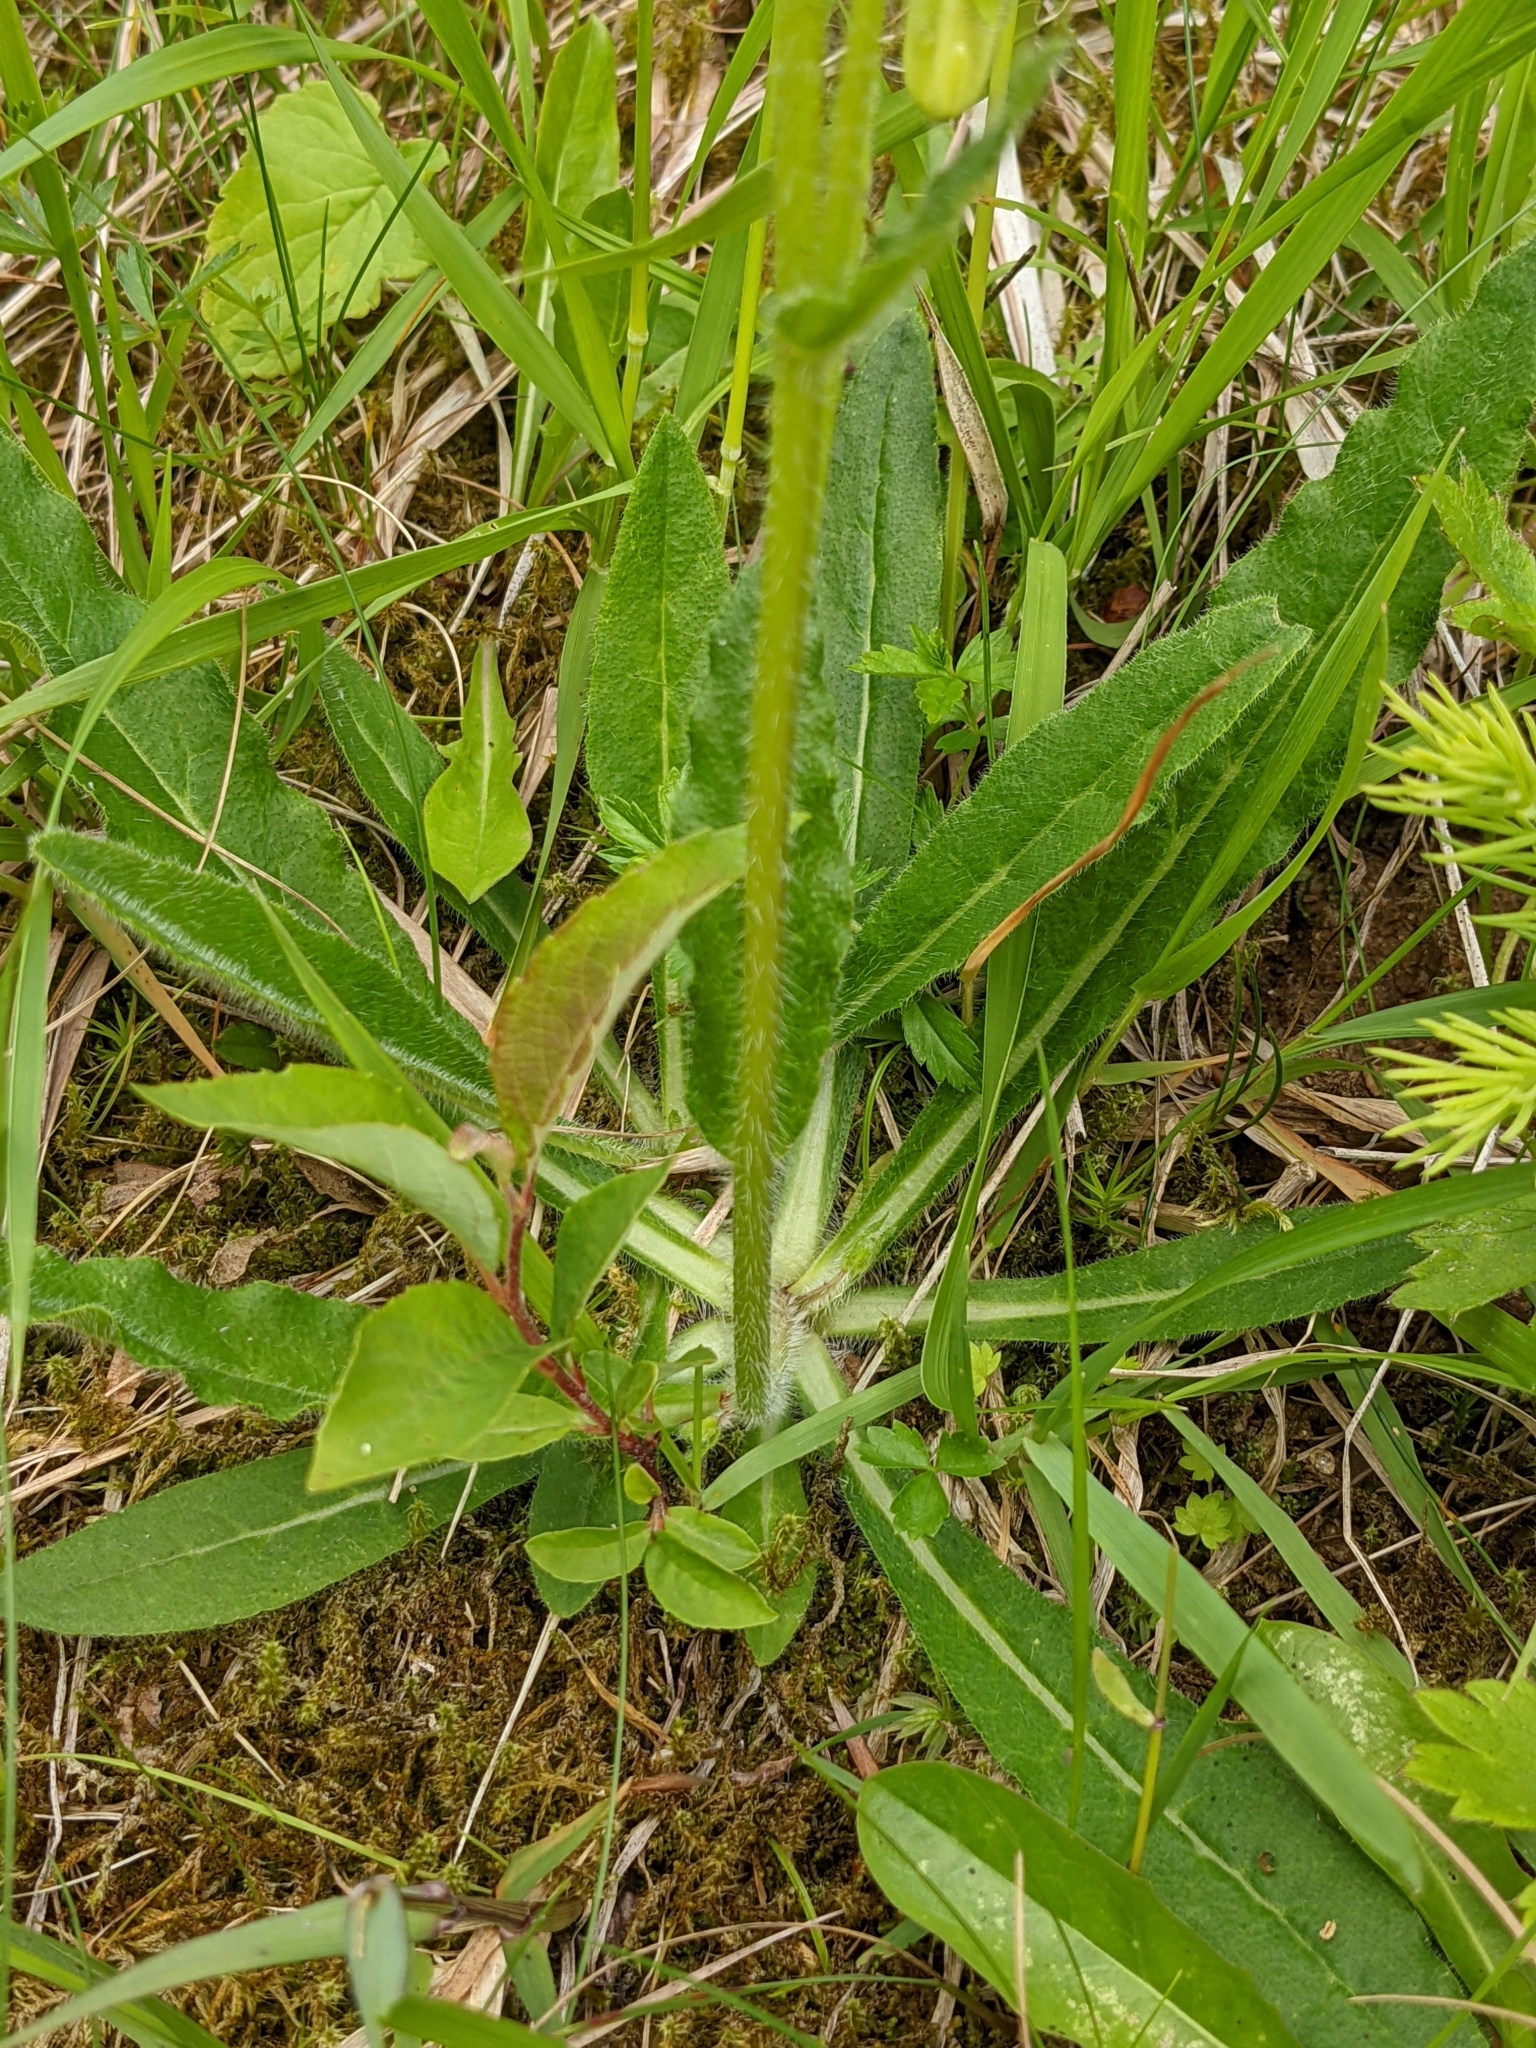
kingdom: Plantae
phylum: Tracheophyta
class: Magnoliopsida
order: Asterales
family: Campanulaceae
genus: Campanula
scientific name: Campanula barbata
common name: Bearded bellflower
